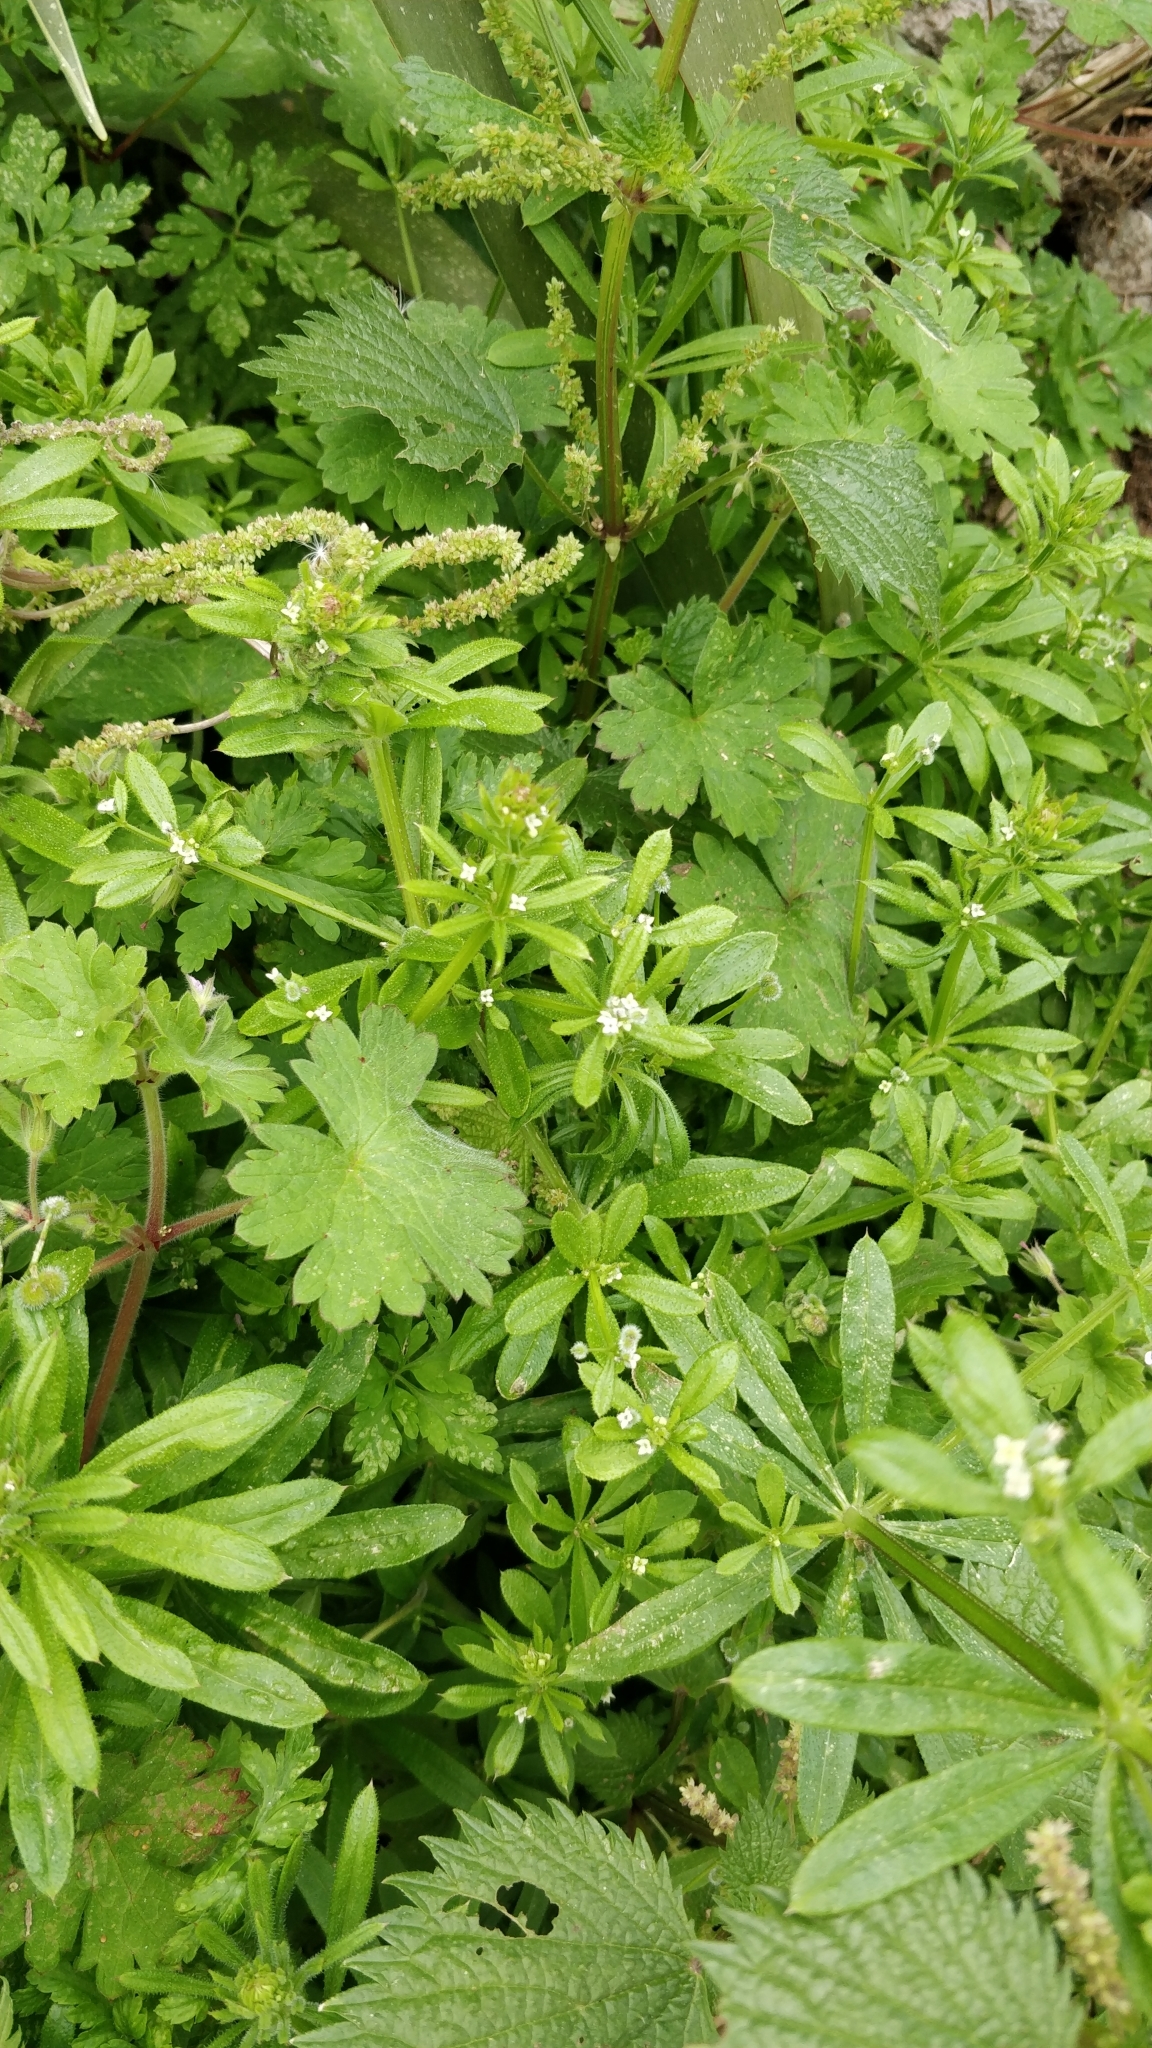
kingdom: Plantae
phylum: Tracheophyta
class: Magnoliopsida
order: Gentianales
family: Rubiaceae
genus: Galium
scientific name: Galium aparine
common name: Cleavers
